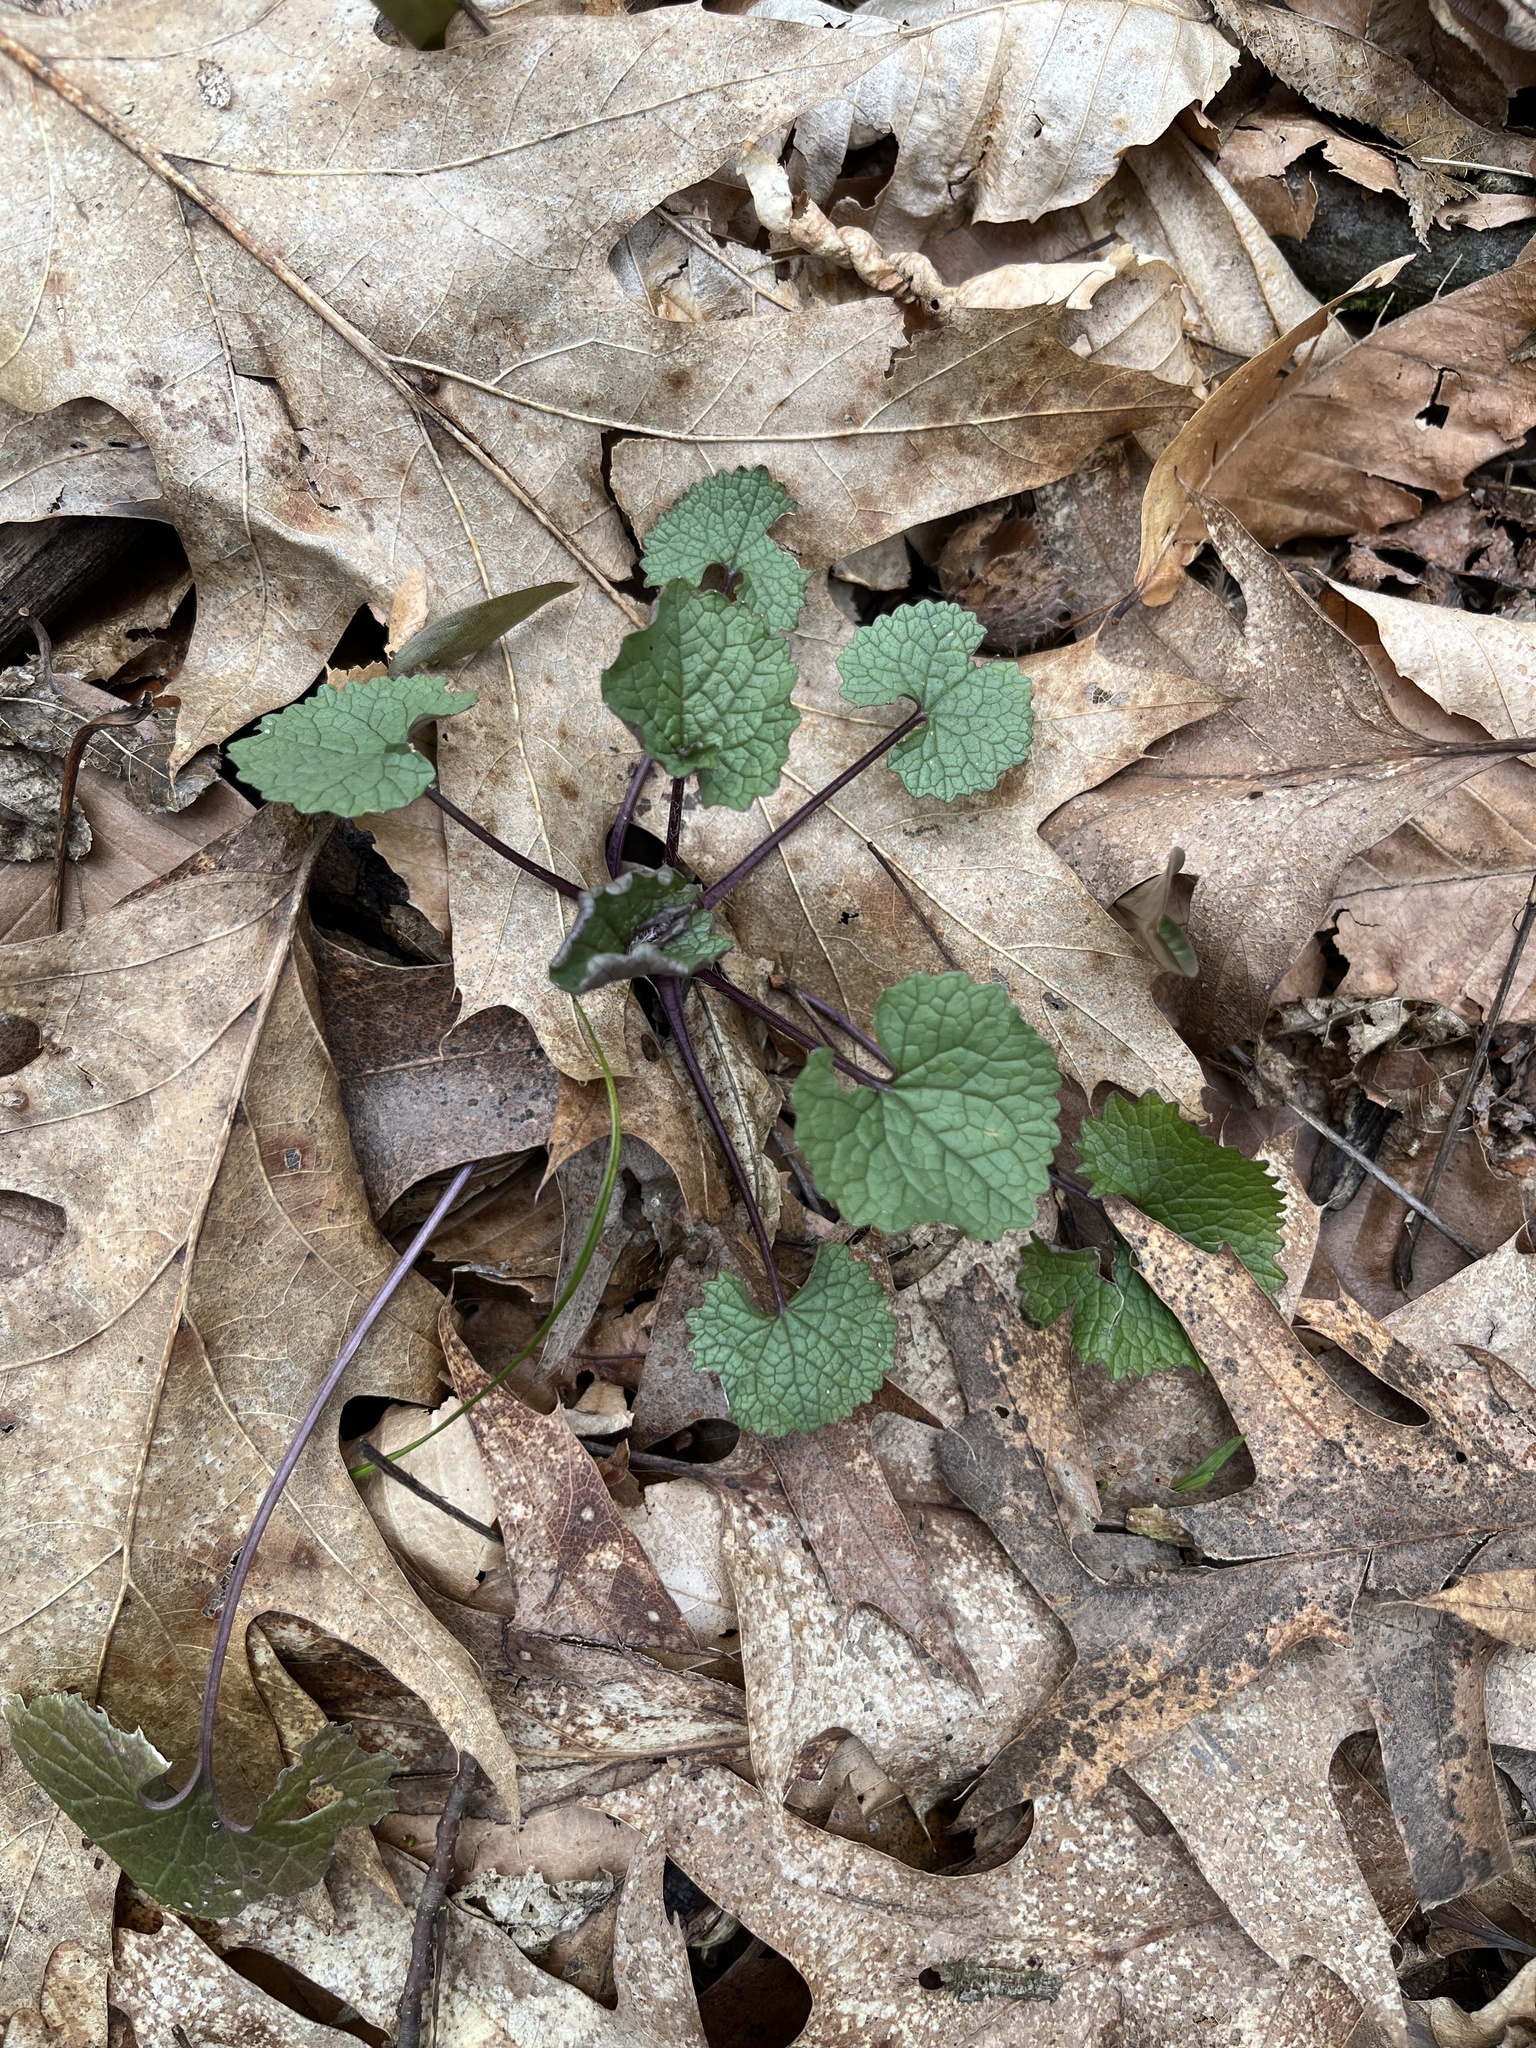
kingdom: Plantae
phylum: Tracheophyta
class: Magnoliopsida
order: Brassicales
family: Brassicaceae
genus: Alliaria
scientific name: Alliaria petiolata
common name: Garlic mustard
